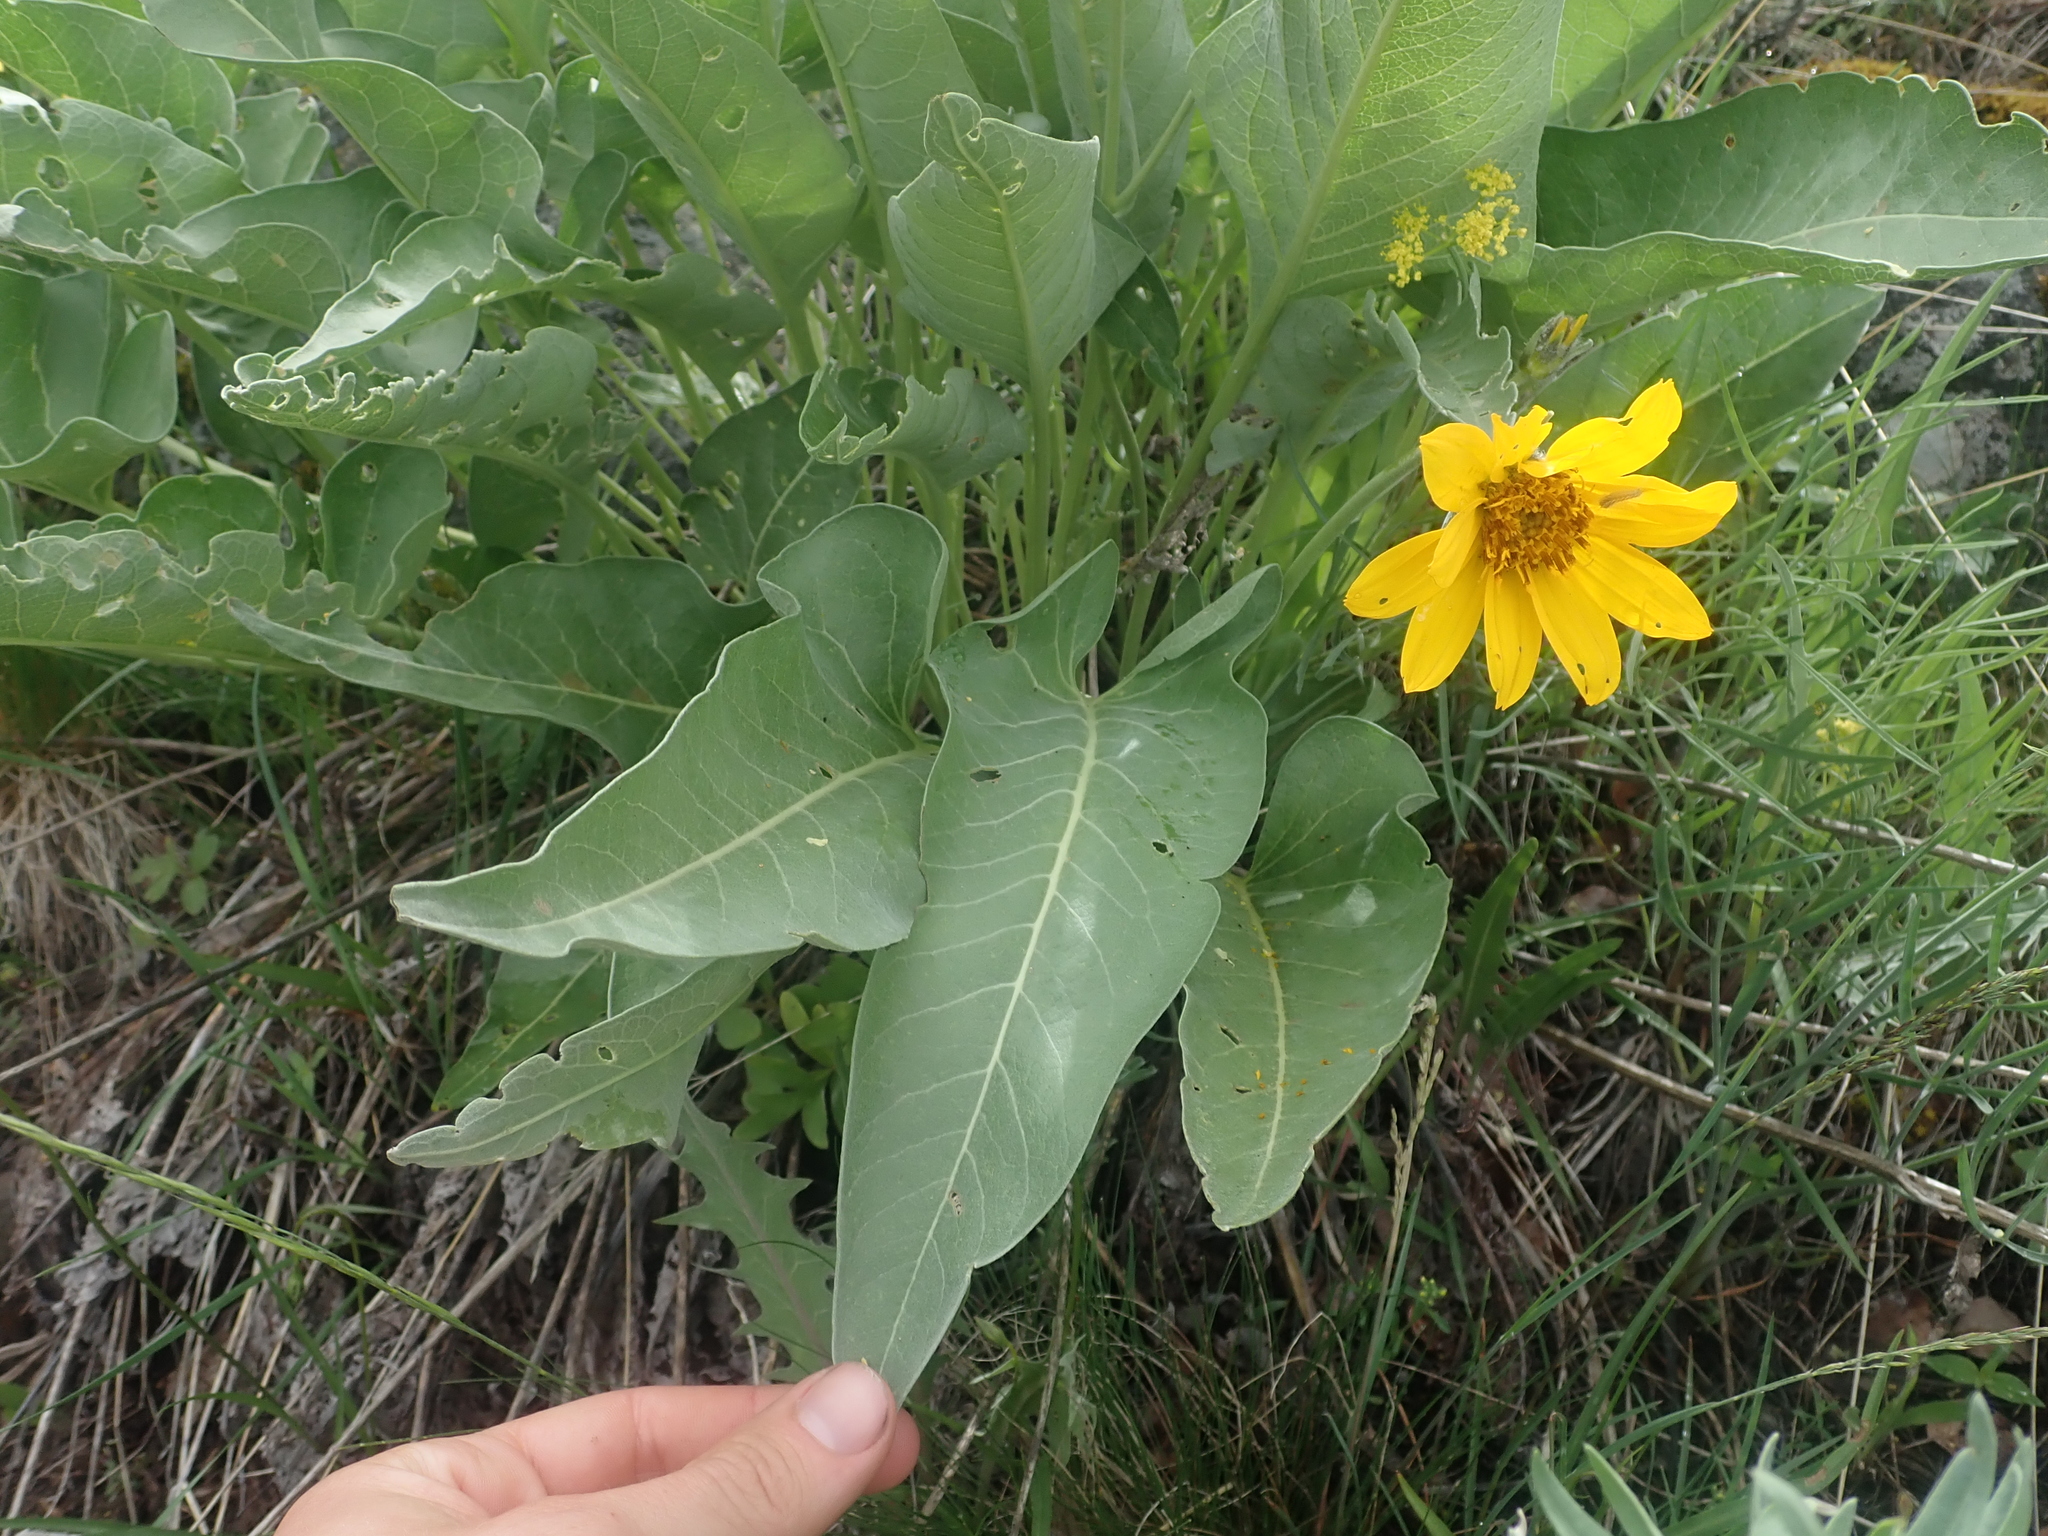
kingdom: Plantae
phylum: Tracheophyta
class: Magnoliopsida
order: Asterales
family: Asteraceae
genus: Wyethia
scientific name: Wyethia sagittata
